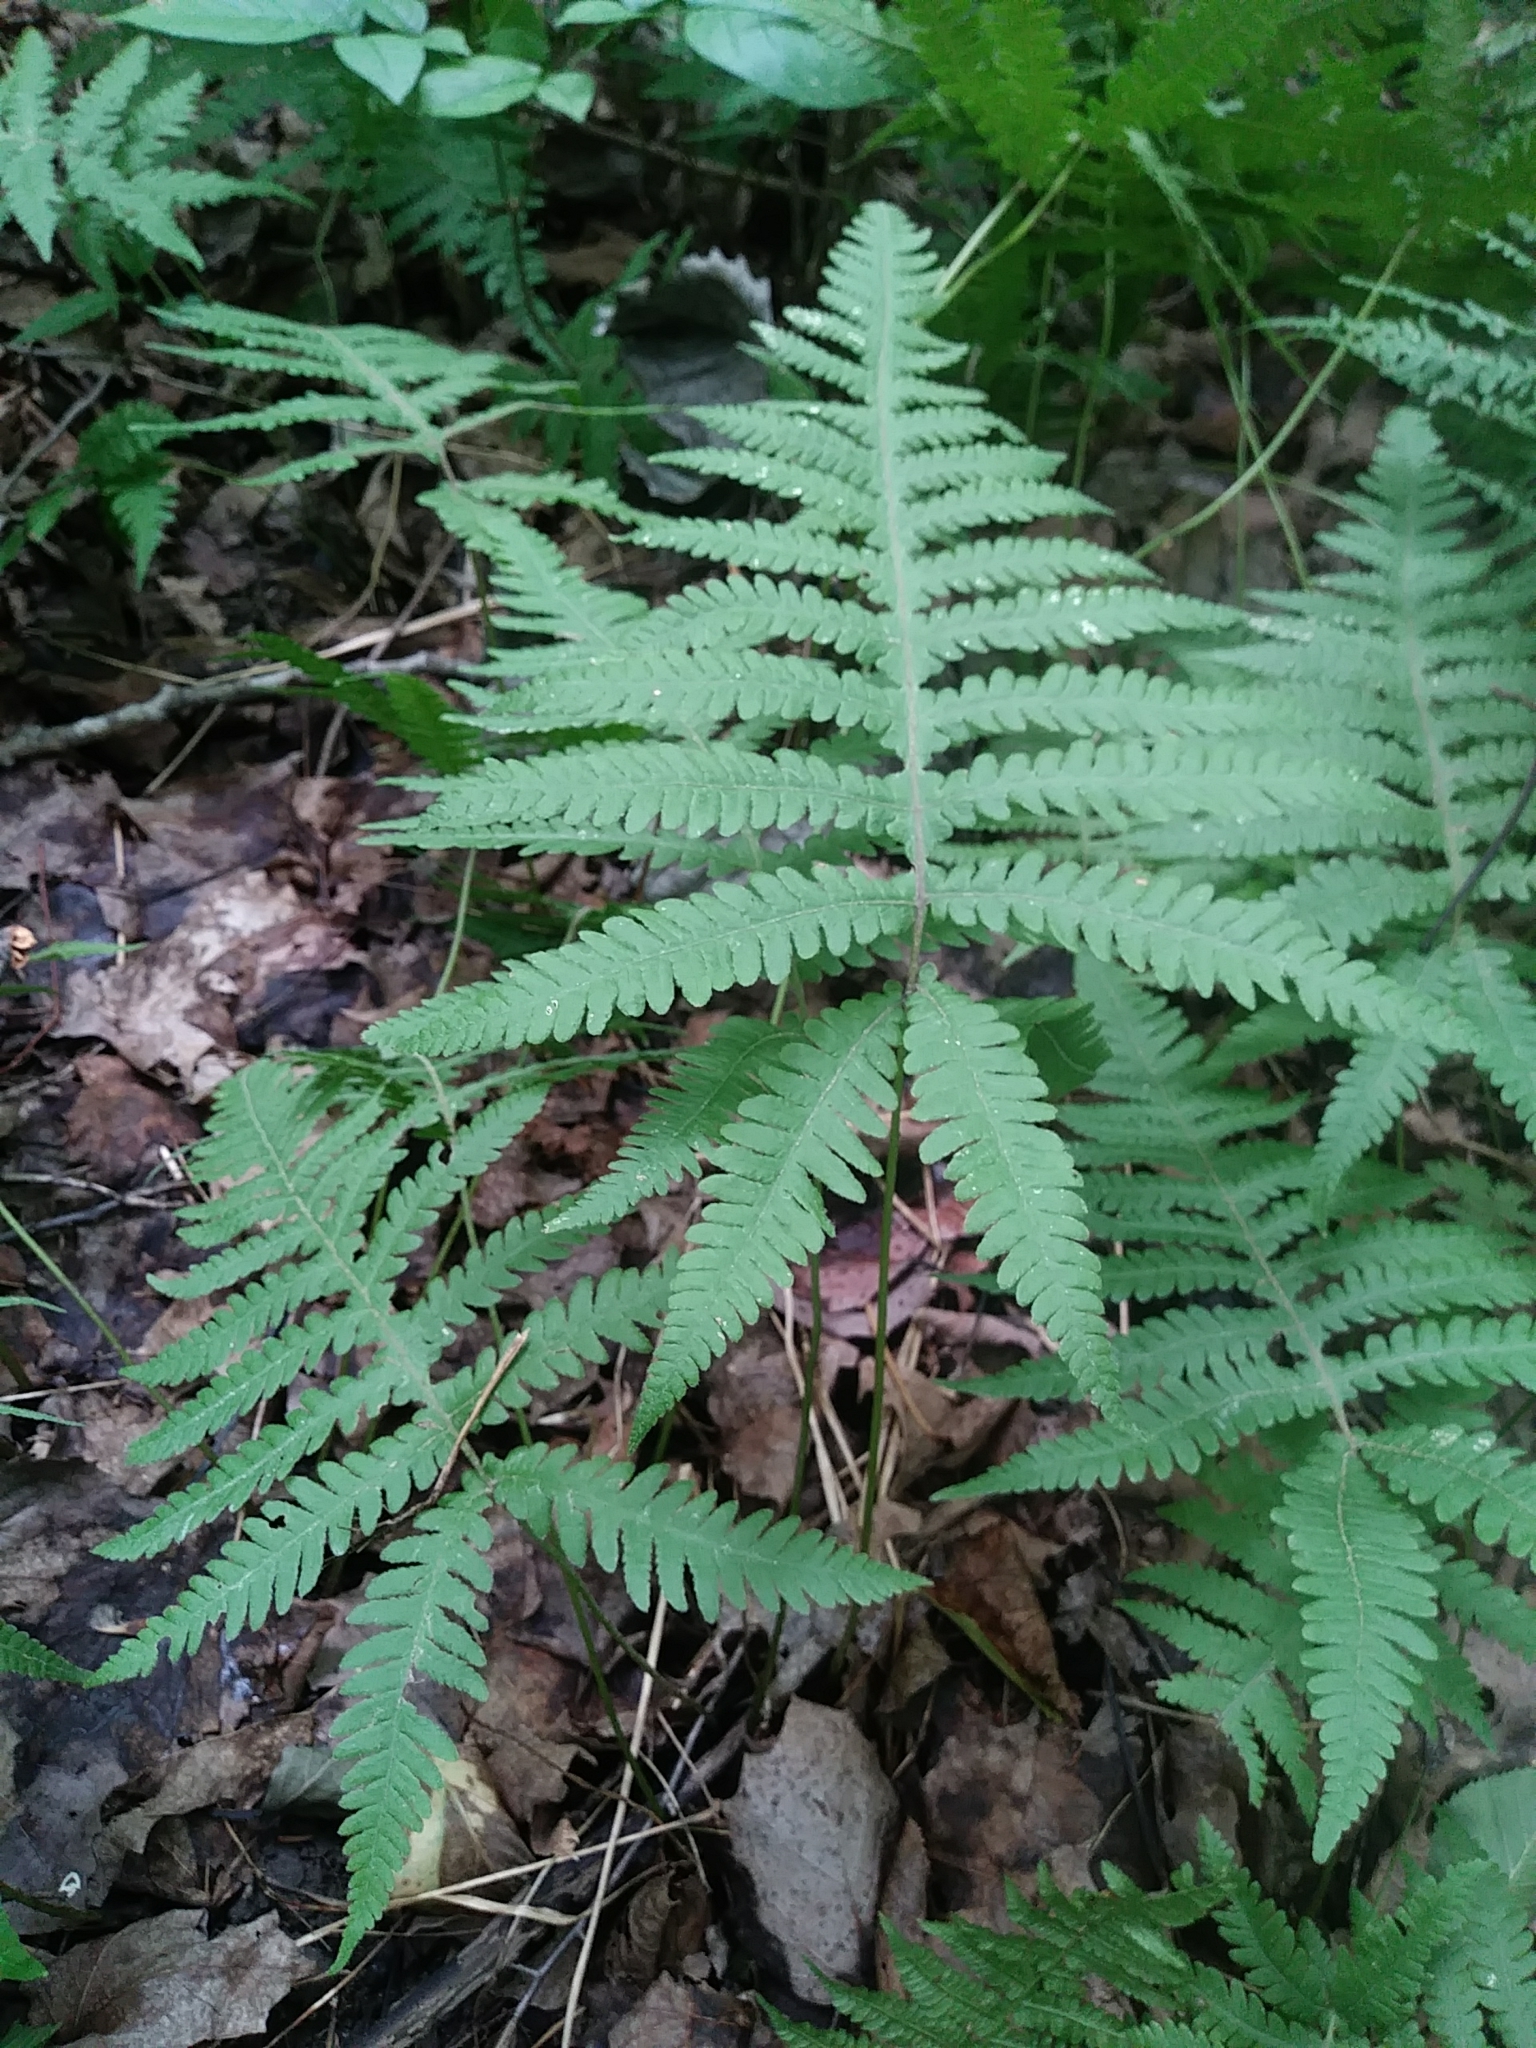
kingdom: Plantae
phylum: Tracheophyta
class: Polypodiopsida
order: Polypodiales
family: Thelypteridaceae
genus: Phegopteris
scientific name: Phegopteris connectilis
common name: Beech fern
